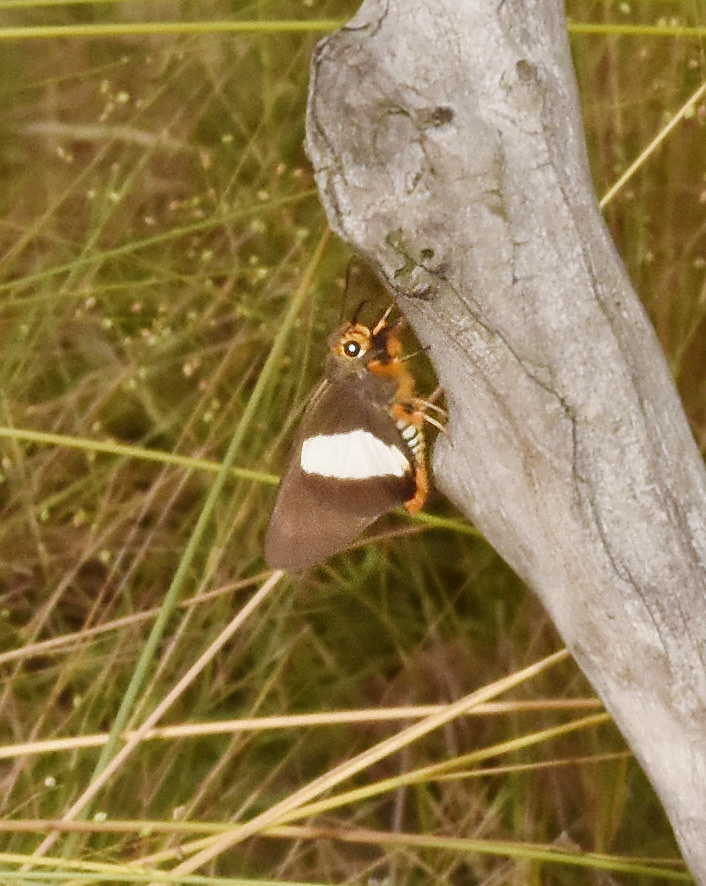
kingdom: Animalia
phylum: Arthropoda
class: Insecta
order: Lepidoptera
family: Hesperiidae
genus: Coeliades
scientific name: Coeliades forestan
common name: Striped policeman
